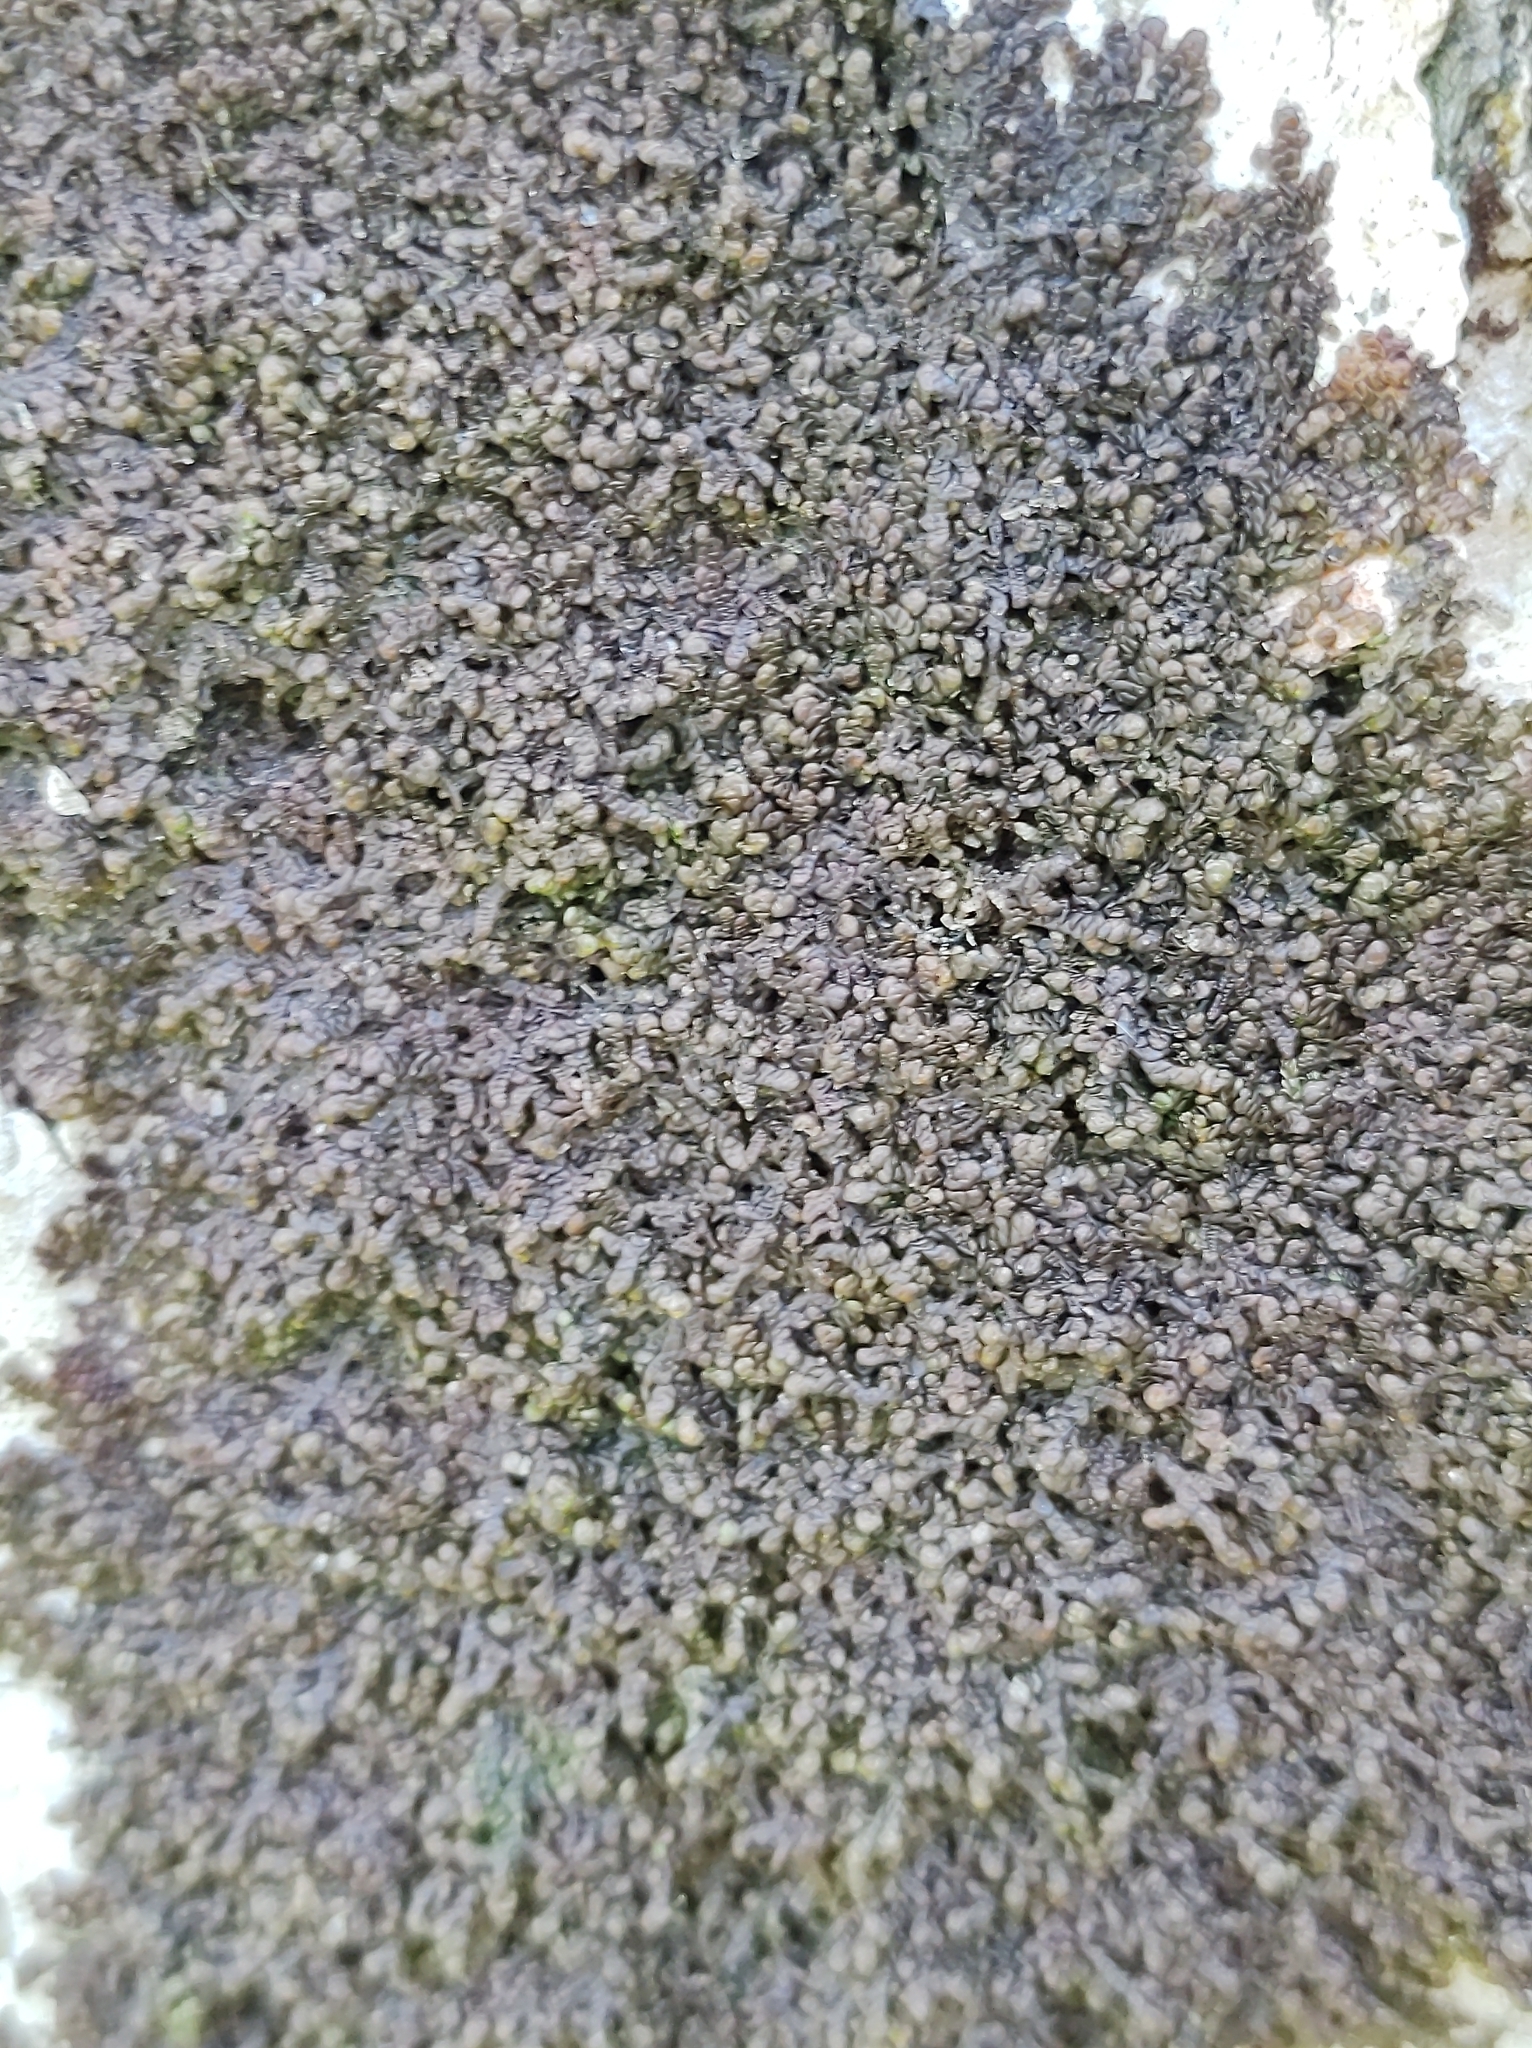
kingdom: Plantae
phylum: Marchantiophyta
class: Jungermanniopsida
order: Porellales
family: Frullaniaceae
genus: Frullania
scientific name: Frullania dilatata
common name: Dilated scalewort
